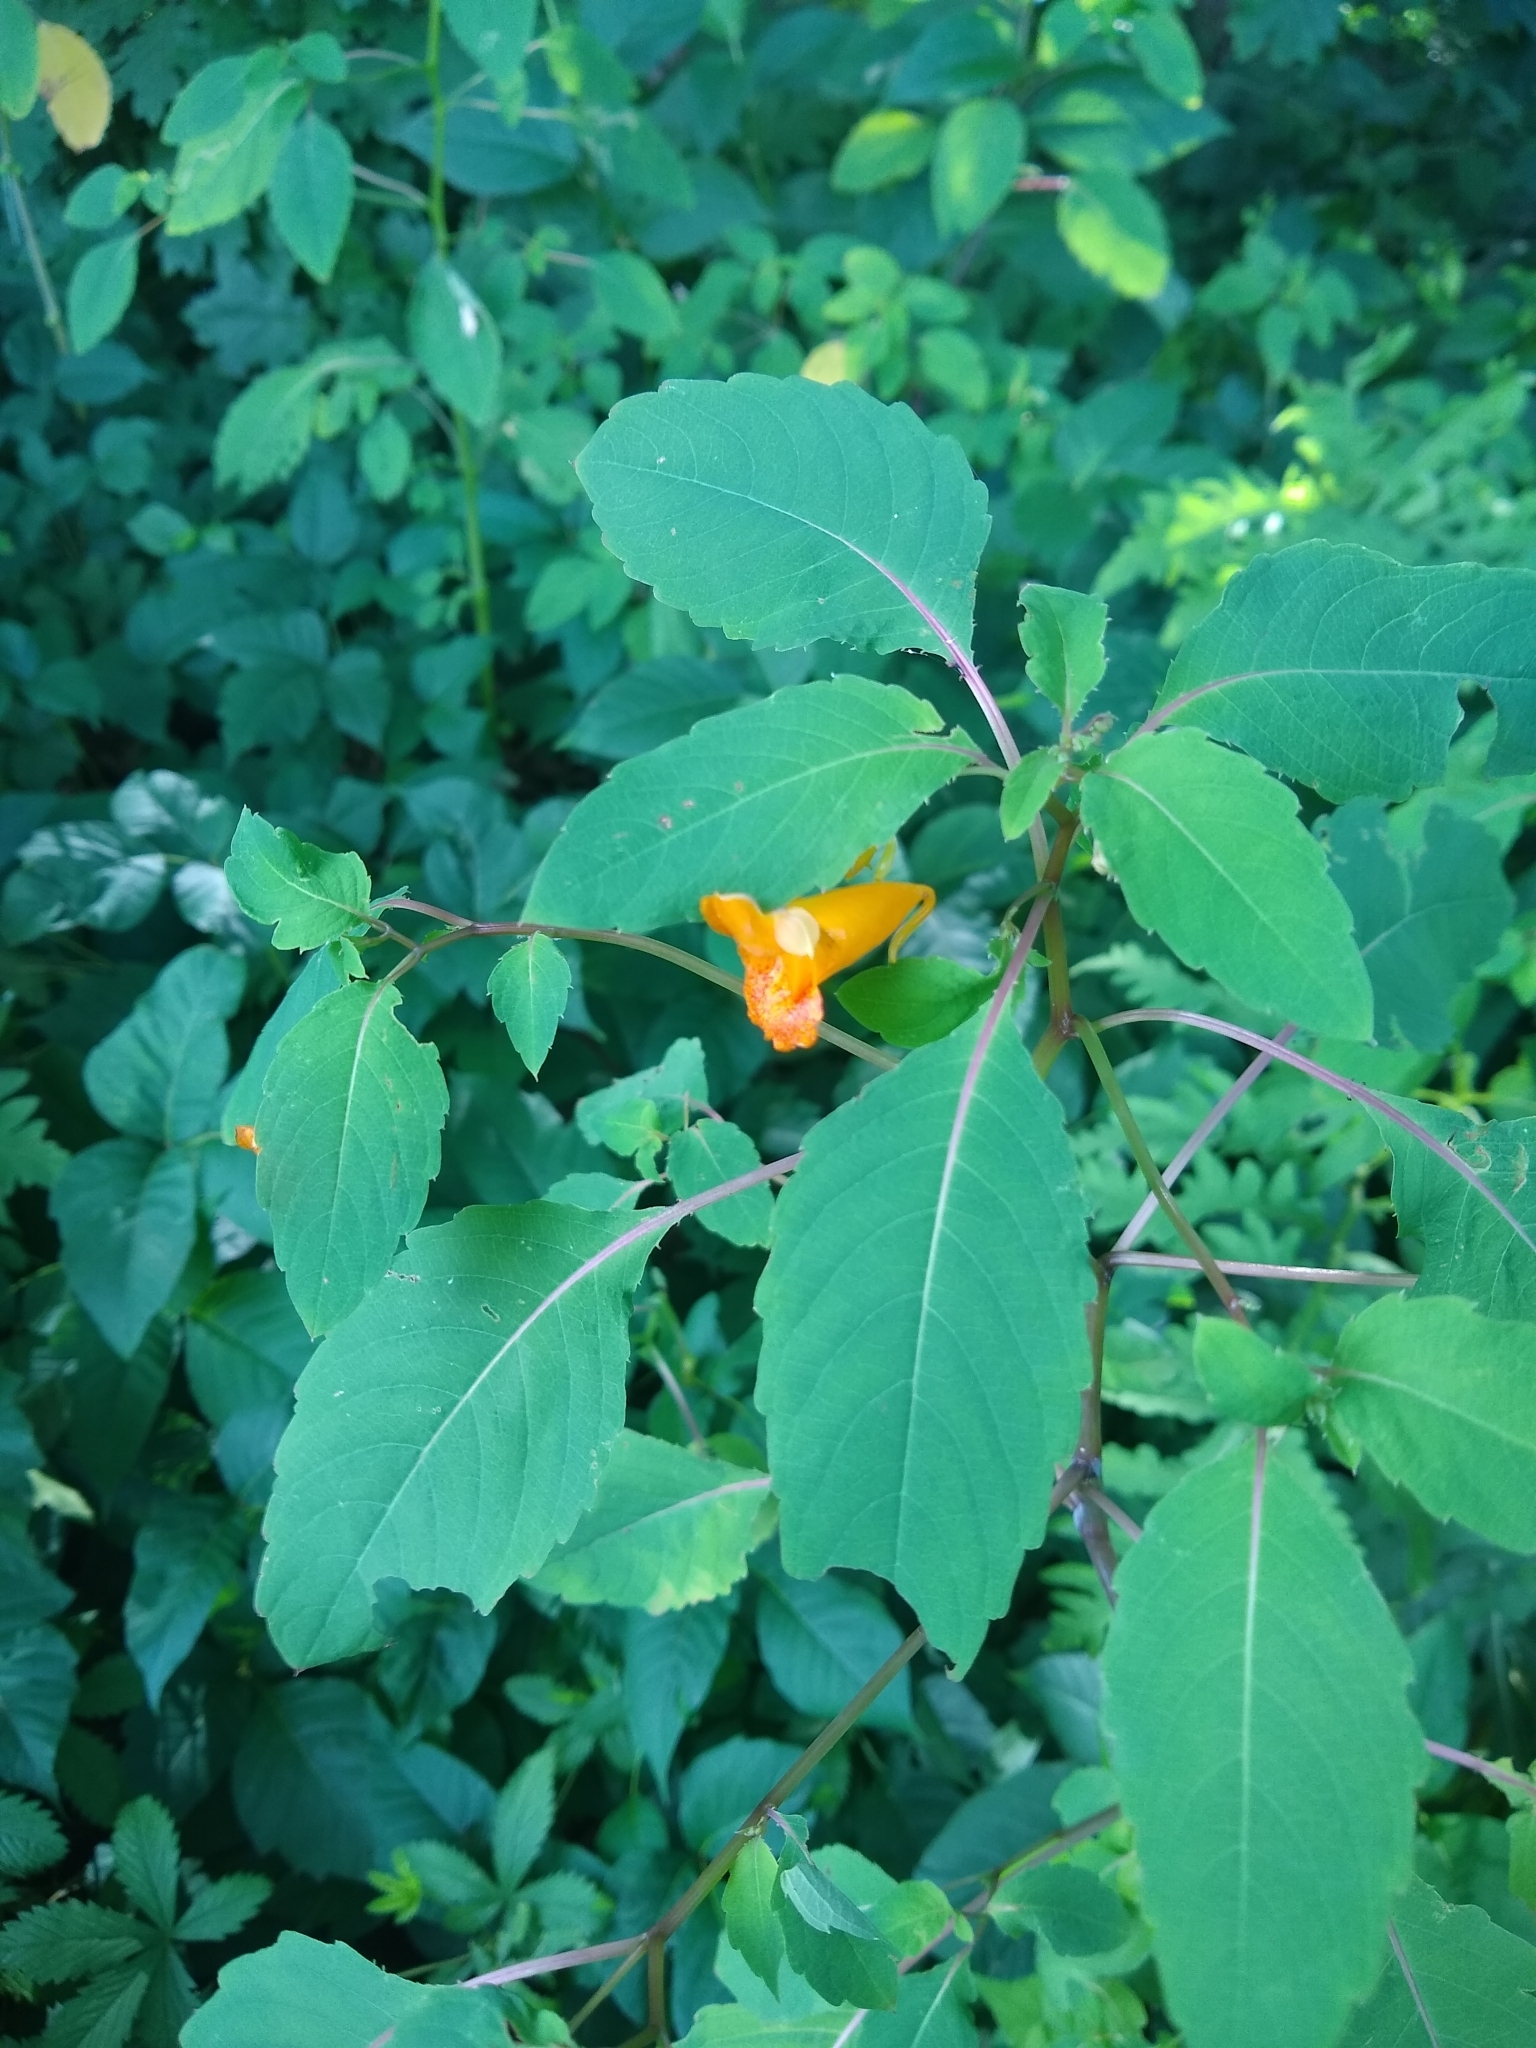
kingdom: Plantae
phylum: Tracheophyta
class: Magnoliopsida
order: Ericales
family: Balsaminaceae
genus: Impatiens
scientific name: Impatiens capensis
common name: Orange balsam
